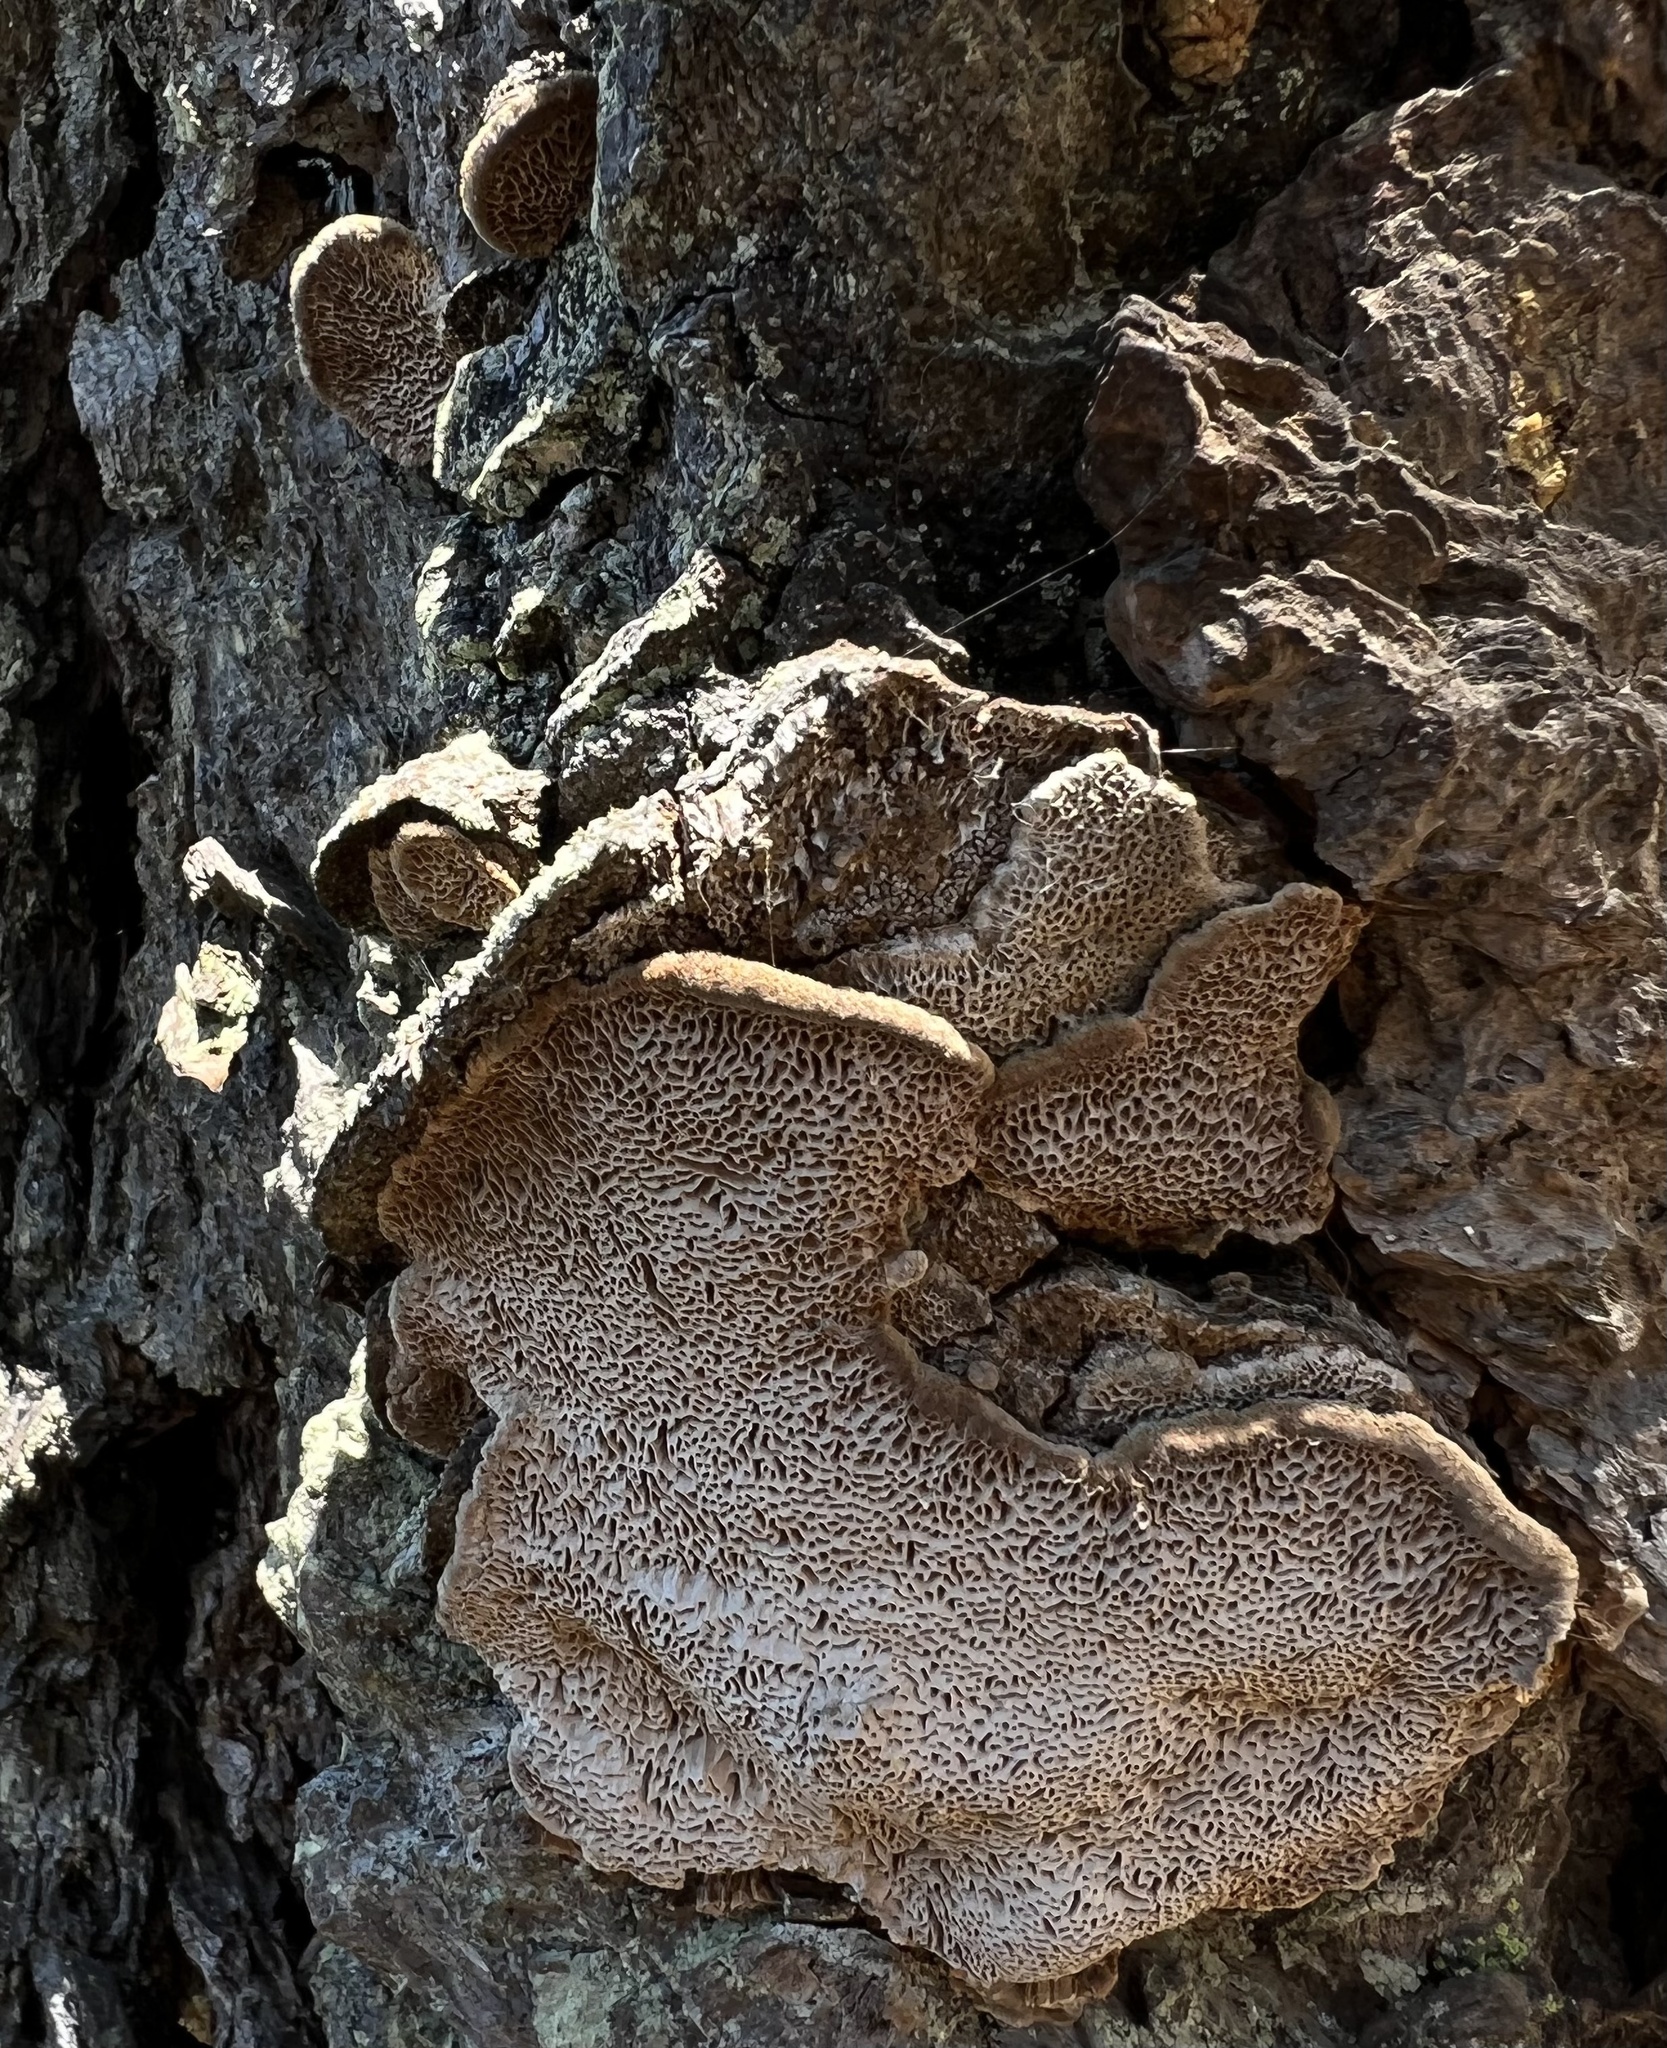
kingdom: Fungi
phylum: Basidiomycota
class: Agaricomycetes
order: Hymenochaetales
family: Hymenochaetaceae
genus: Porodaedalea
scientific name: Porodaedalea pini
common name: Pine bracket
